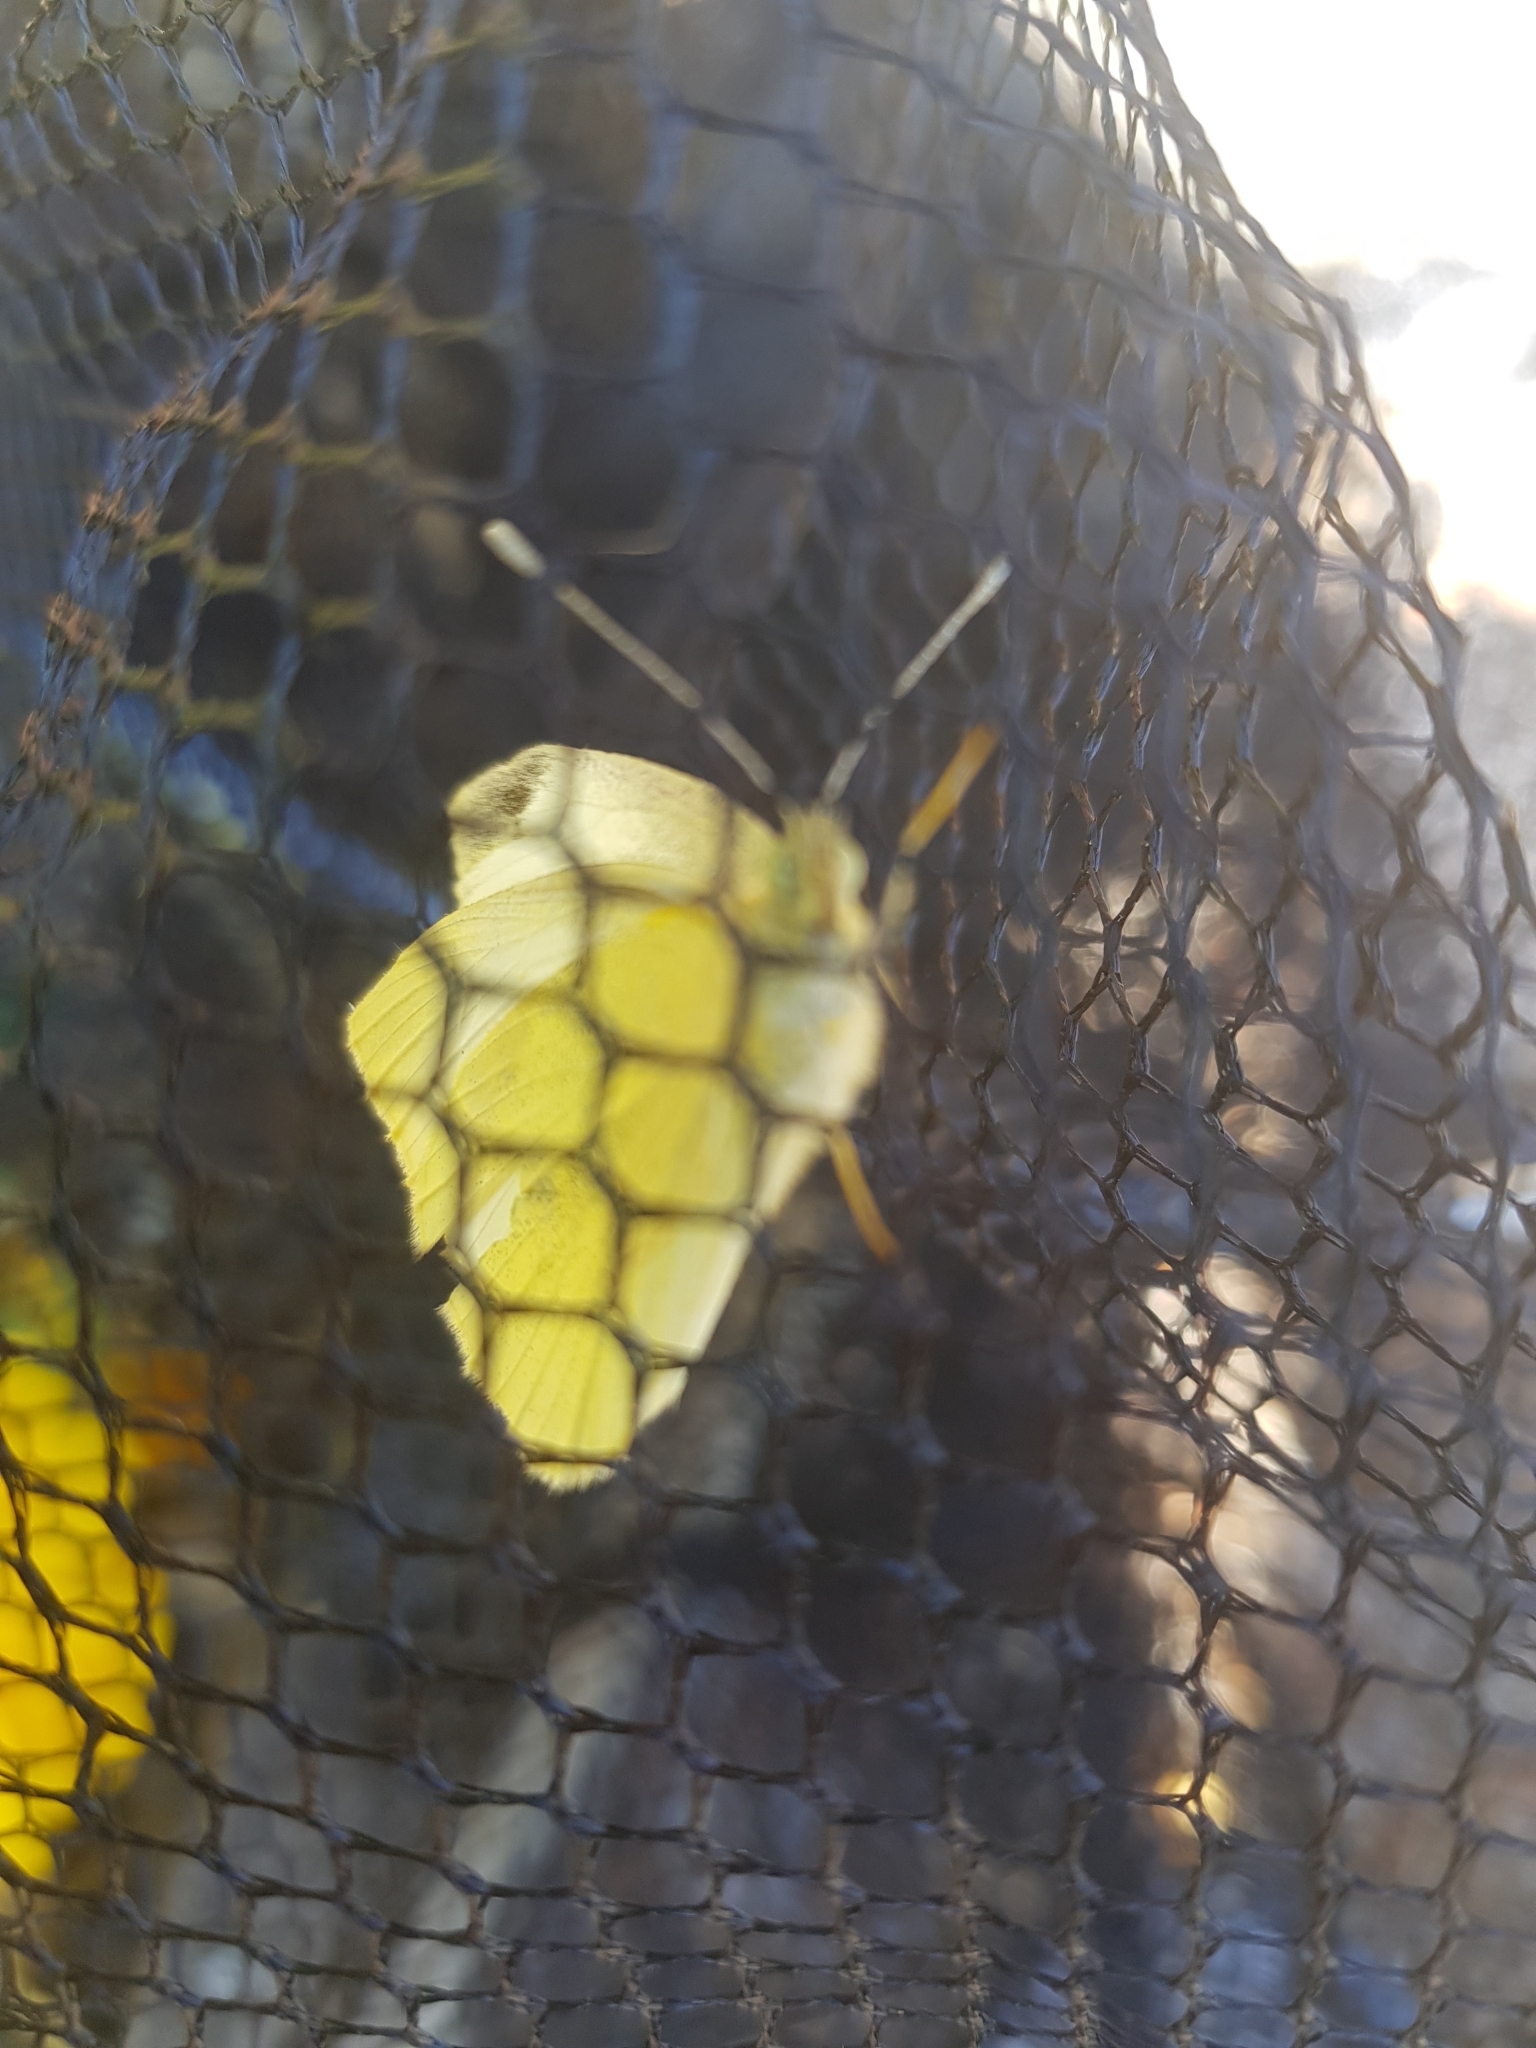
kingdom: Animalia
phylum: Arthropoda
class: Insecta
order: Lepidoptera
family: Pieridae
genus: Pieris
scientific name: Pieris rapae
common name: Small white
